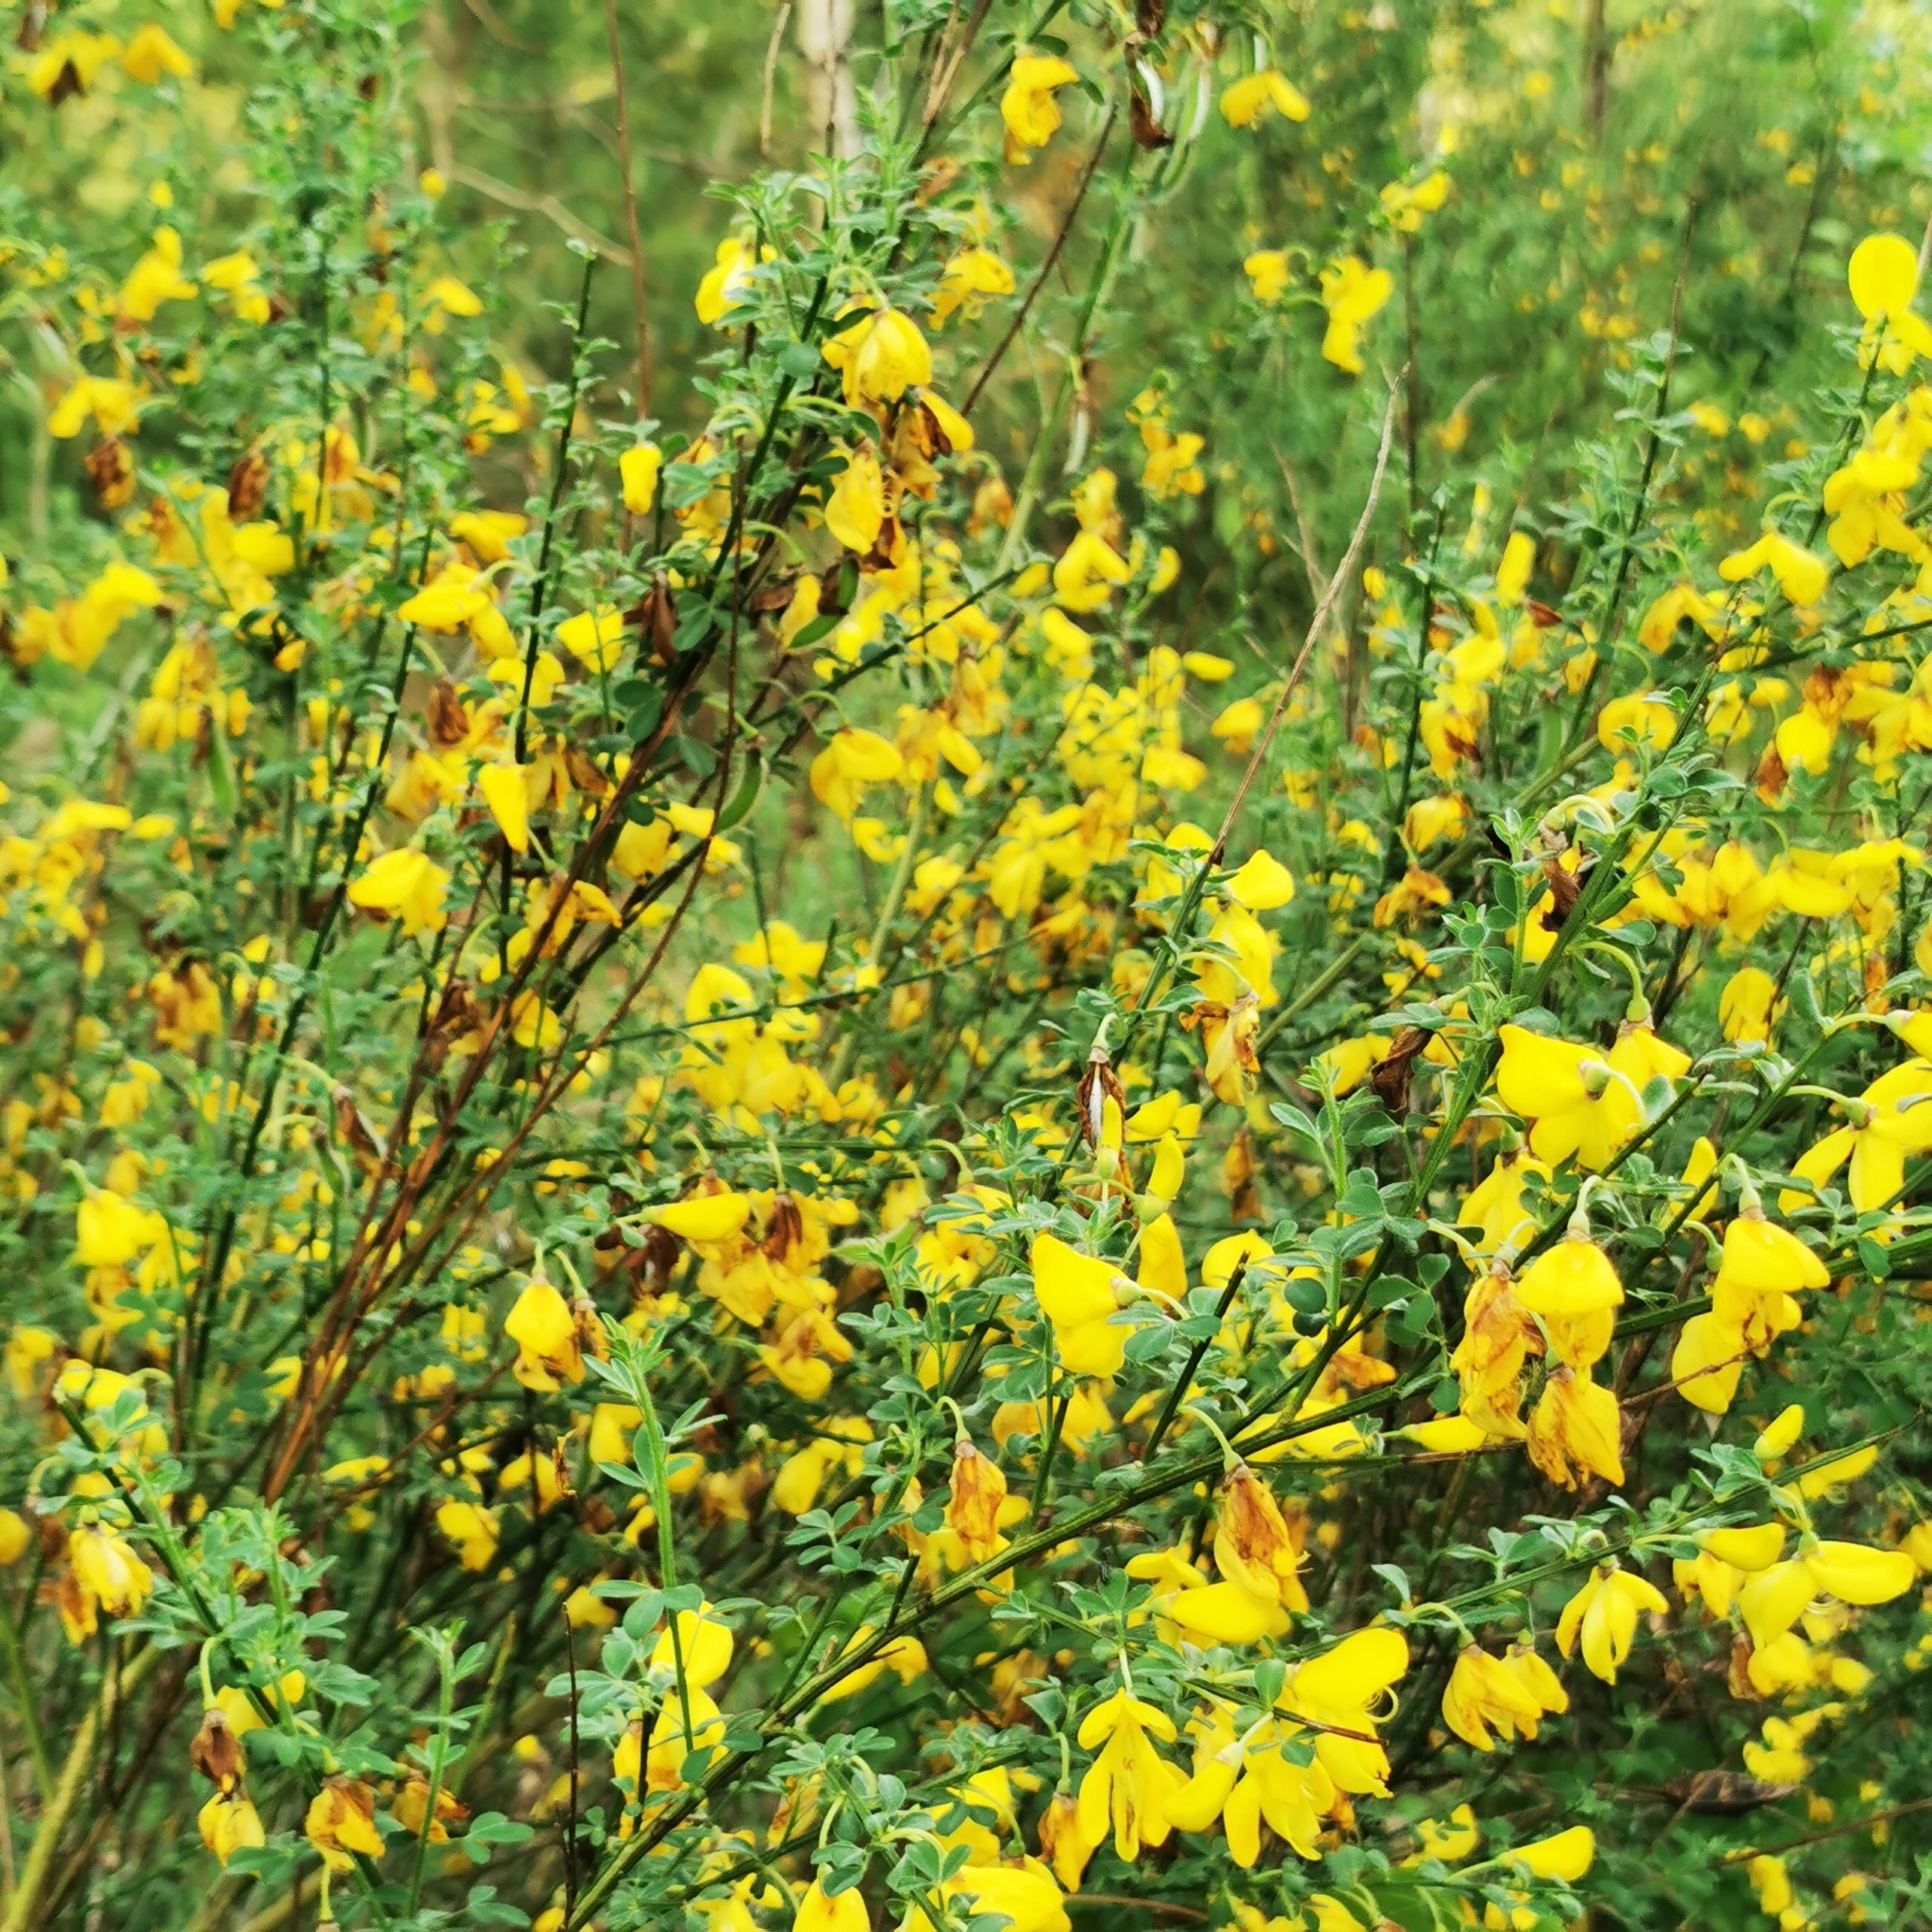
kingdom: Plantae
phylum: Tracheophyta
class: Magnoliopsida
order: Fabales
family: Fabaceae
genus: Cytisus
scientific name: Cytisus scoparius
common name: Scotch broom
